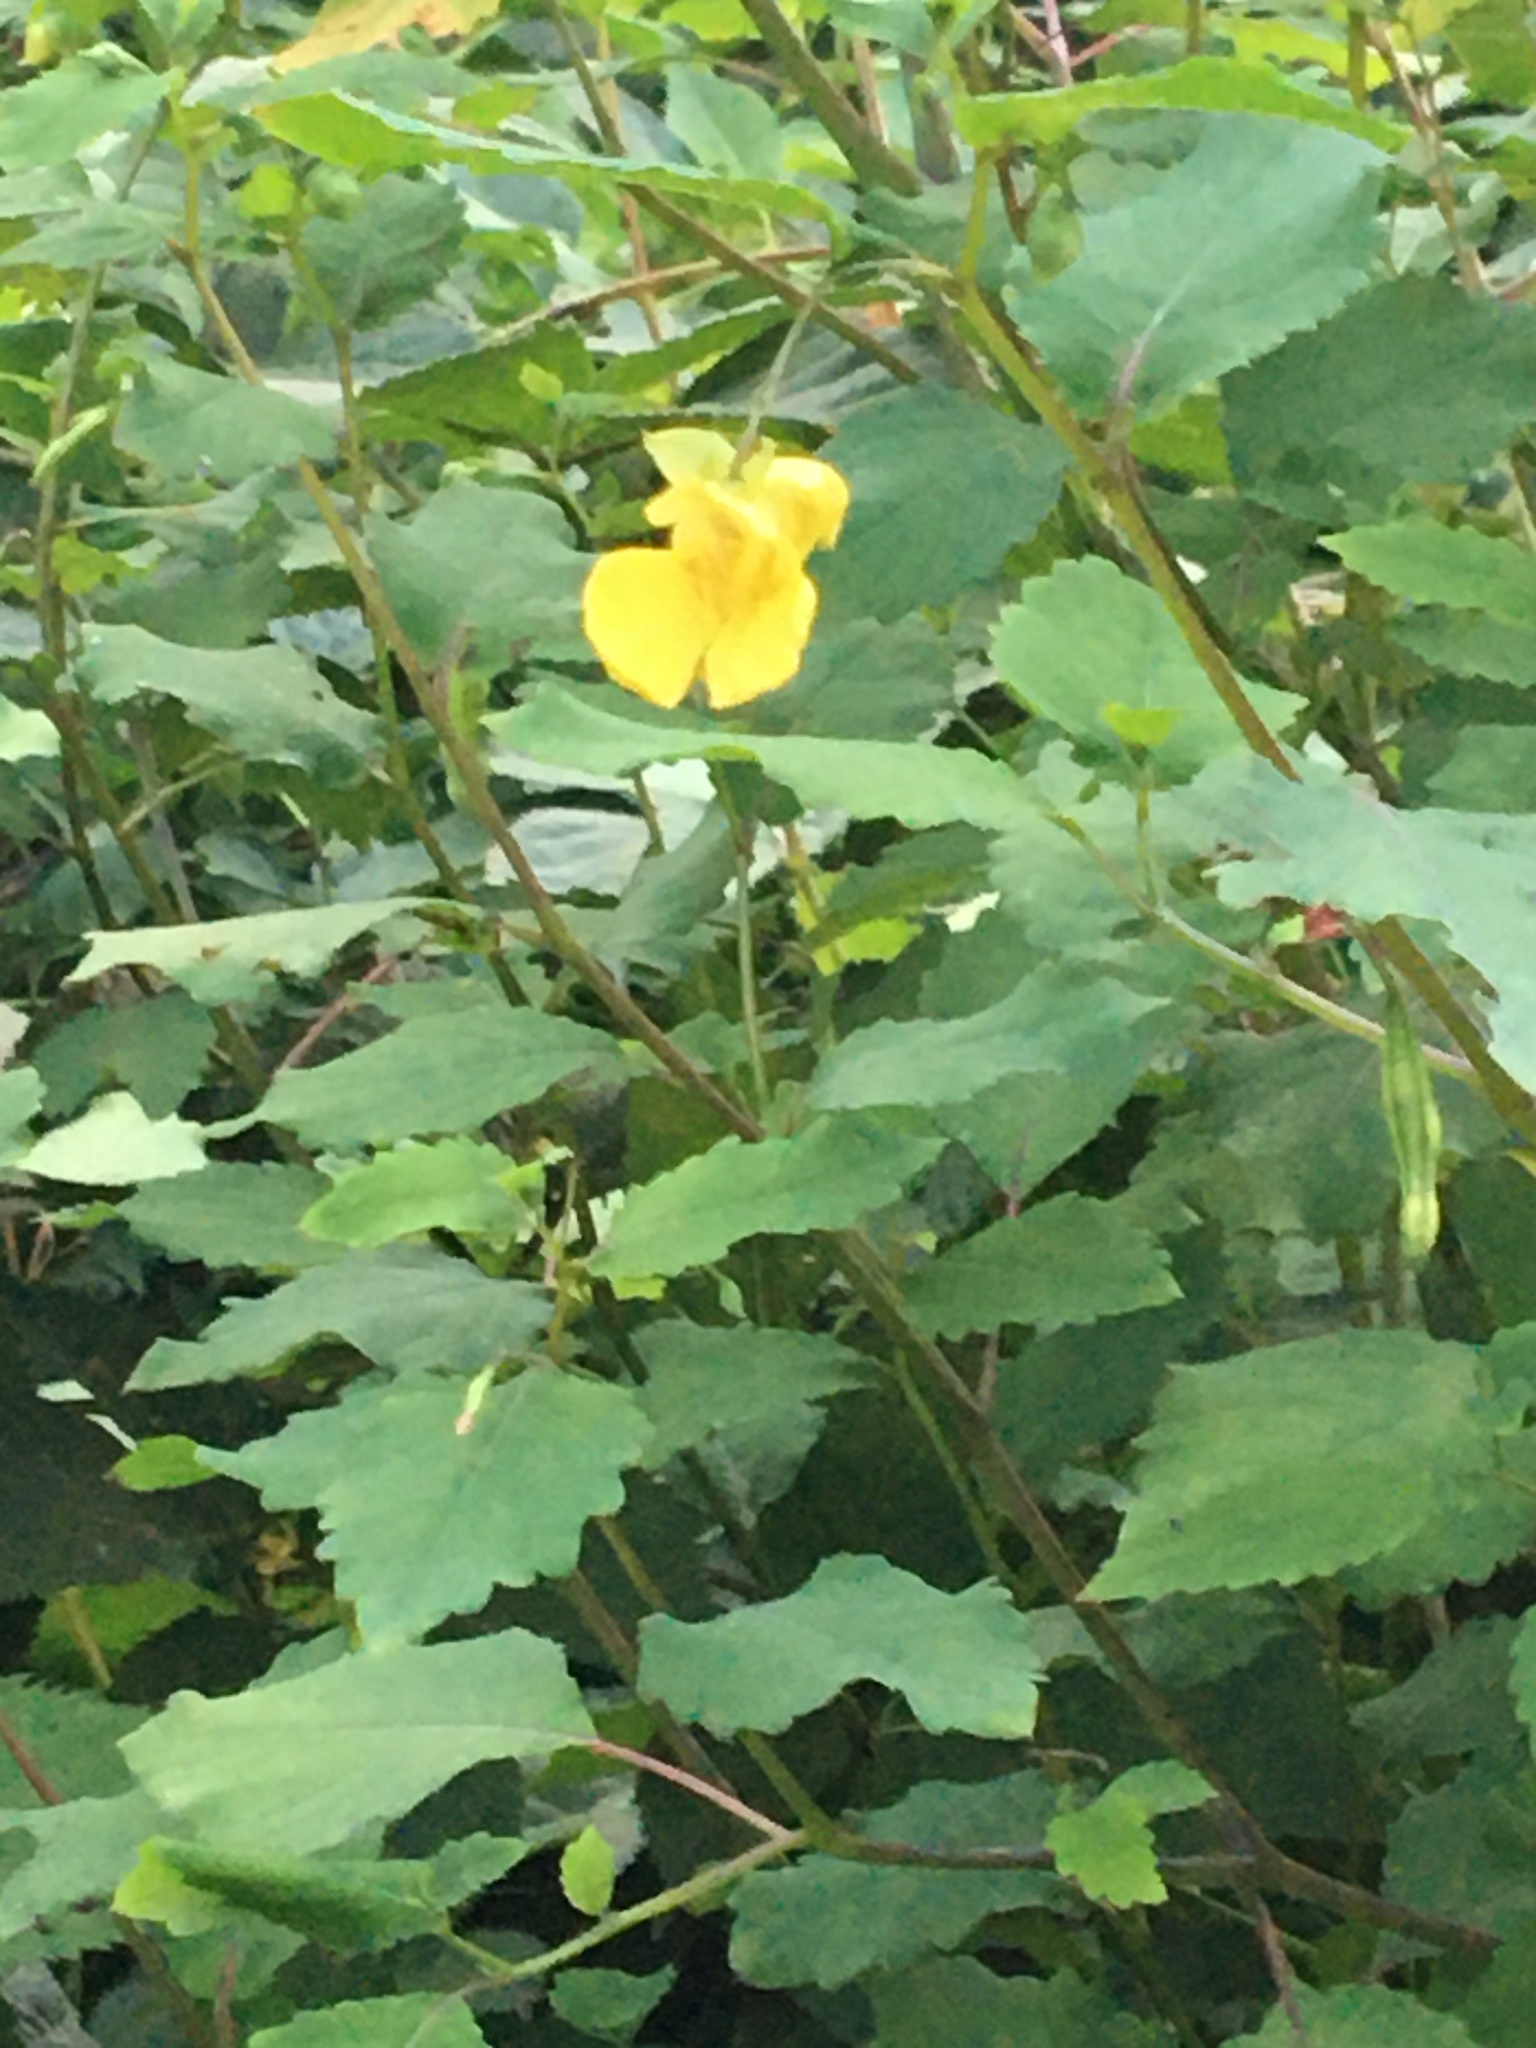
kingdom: Plantae
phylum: Tracheophyta
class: Magnoliopsida
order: Ericales
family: Balsaminaceae
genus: Impatiens
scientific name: Impatiens pallida
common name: Pale snapweed
